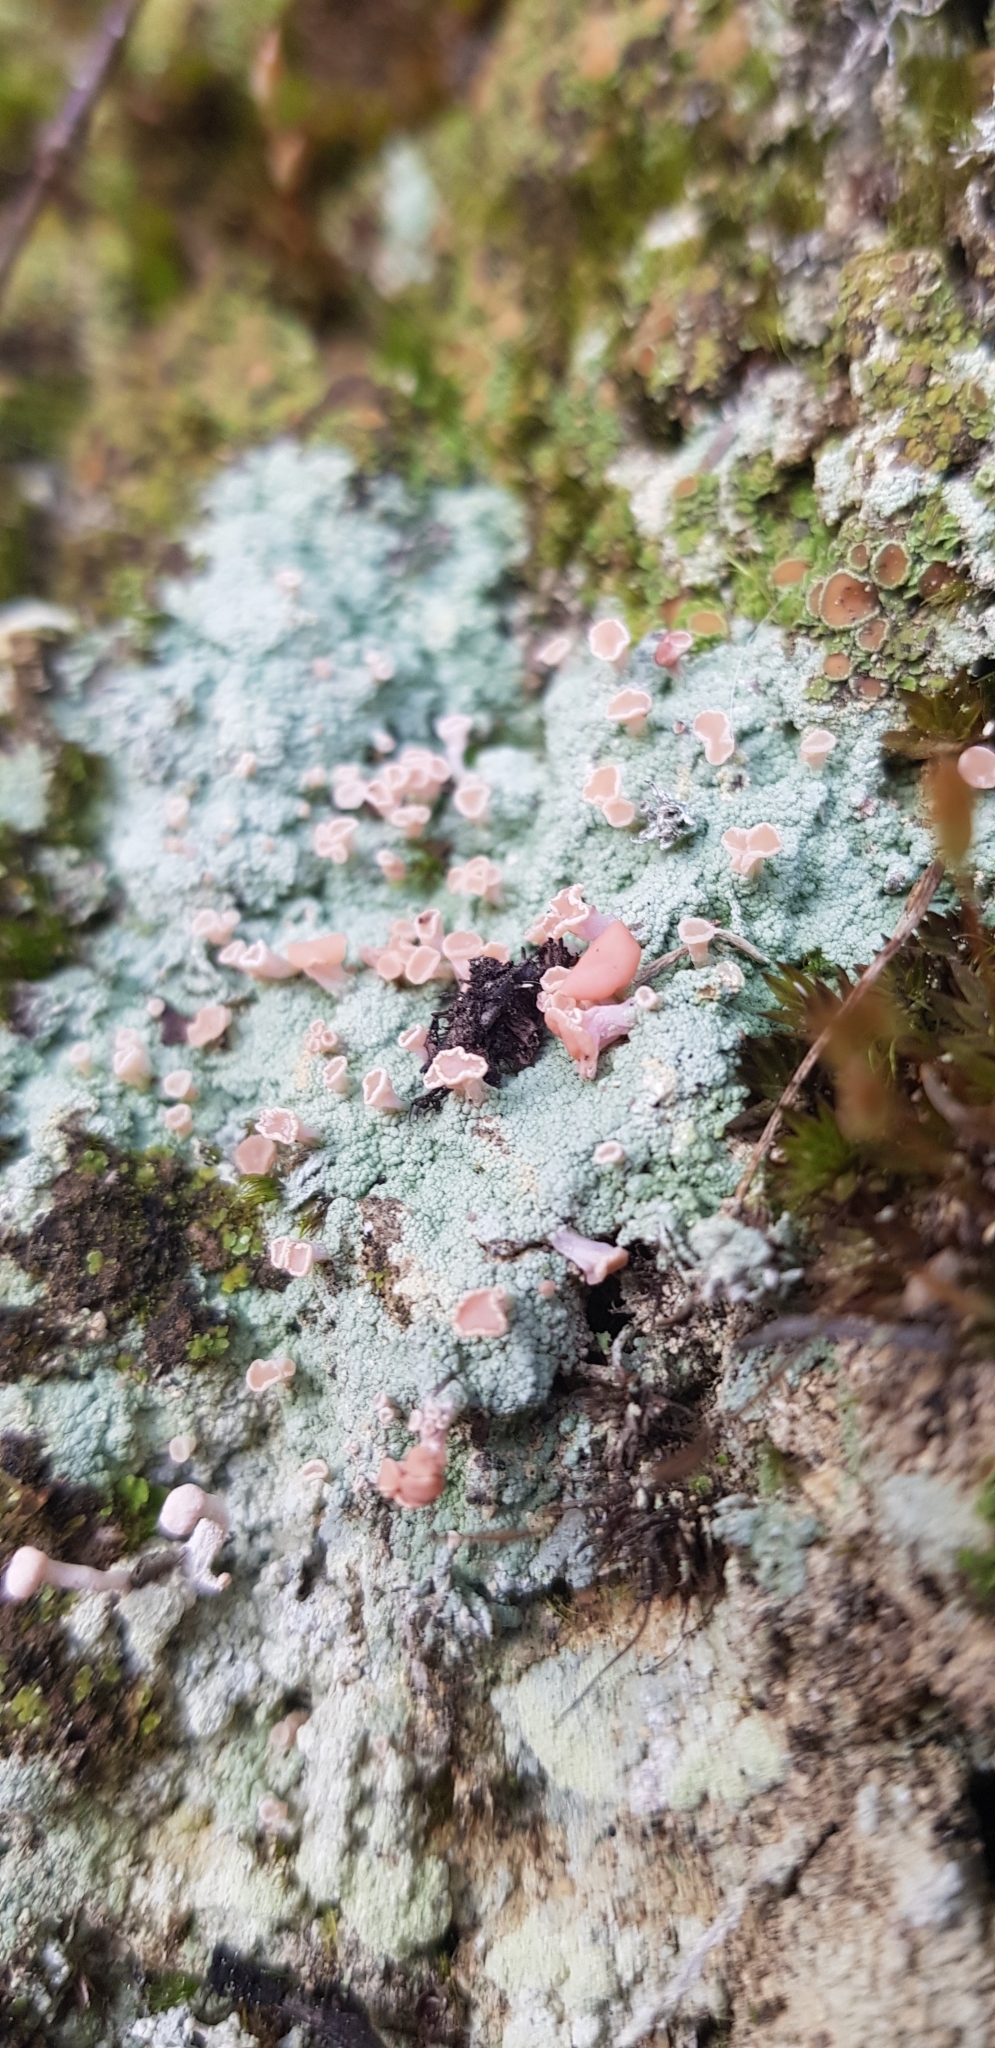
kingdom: Fungi
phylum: Ascomycota
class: Lecanoromycetes
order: Baeomycetales
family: Baeomycetaceae
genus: Baeomyces
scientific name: Baeomyces heteromorphus
